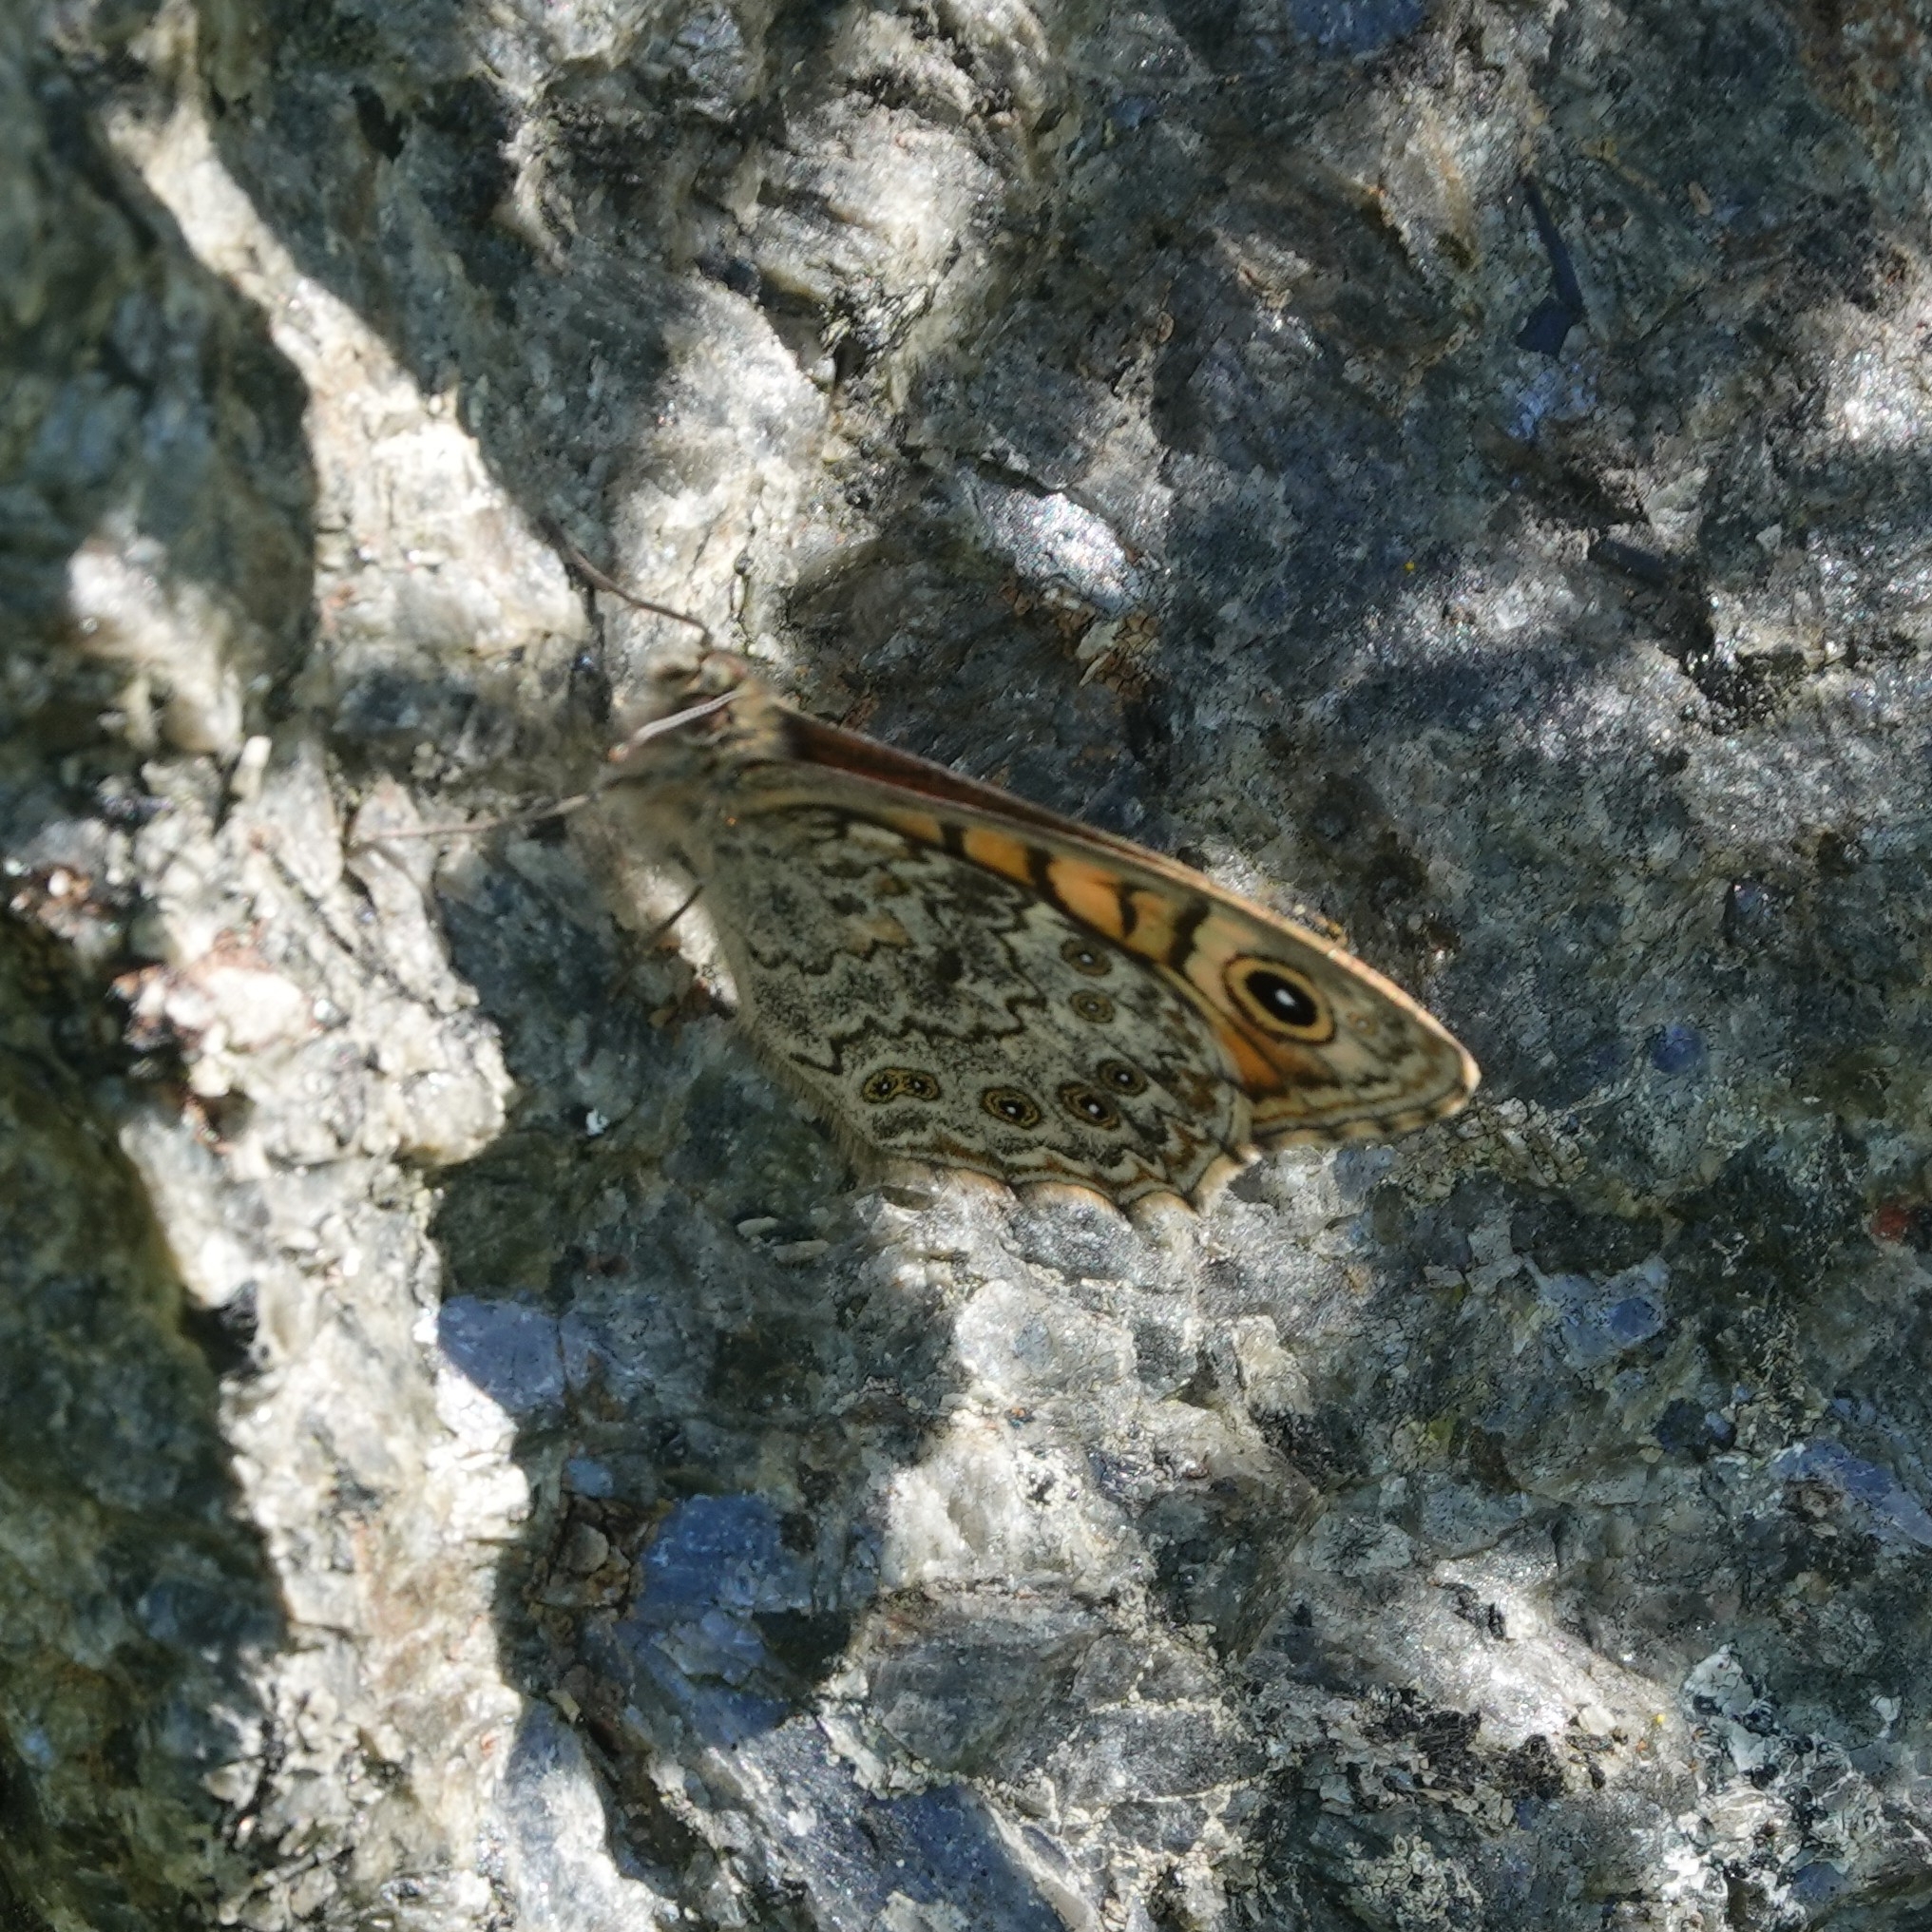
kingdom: Animalia
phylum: Arthropoda
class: Insecta
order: Lepidoptera
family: Nymphalidae
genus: Pararge
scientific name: Pararge Lasiommata megera
